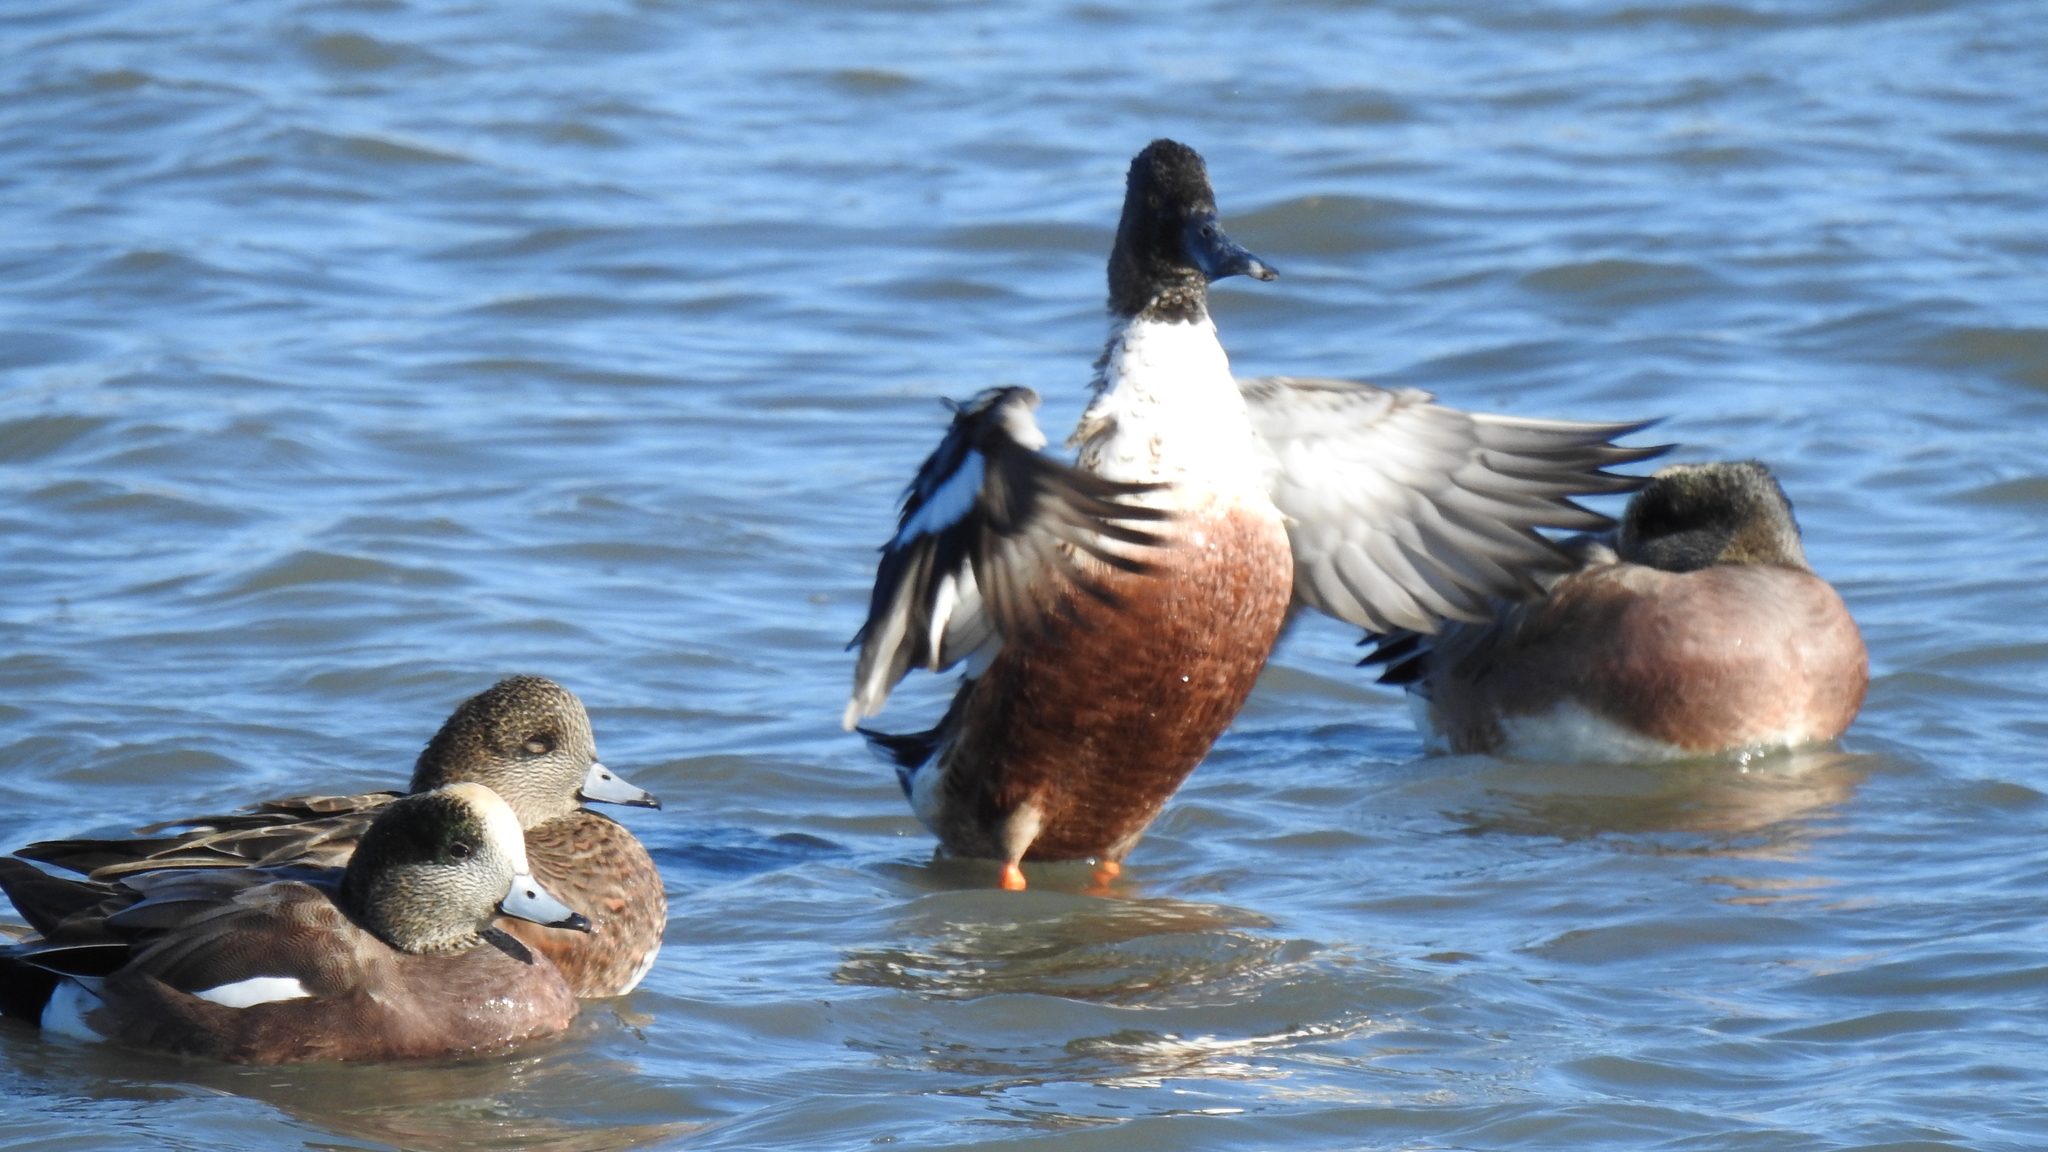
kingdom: Animalia
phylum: Chordata
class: Aves
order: Anseriformes
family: Anatidae
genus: Mareca
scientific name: Mareca americana
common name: American wigeon
